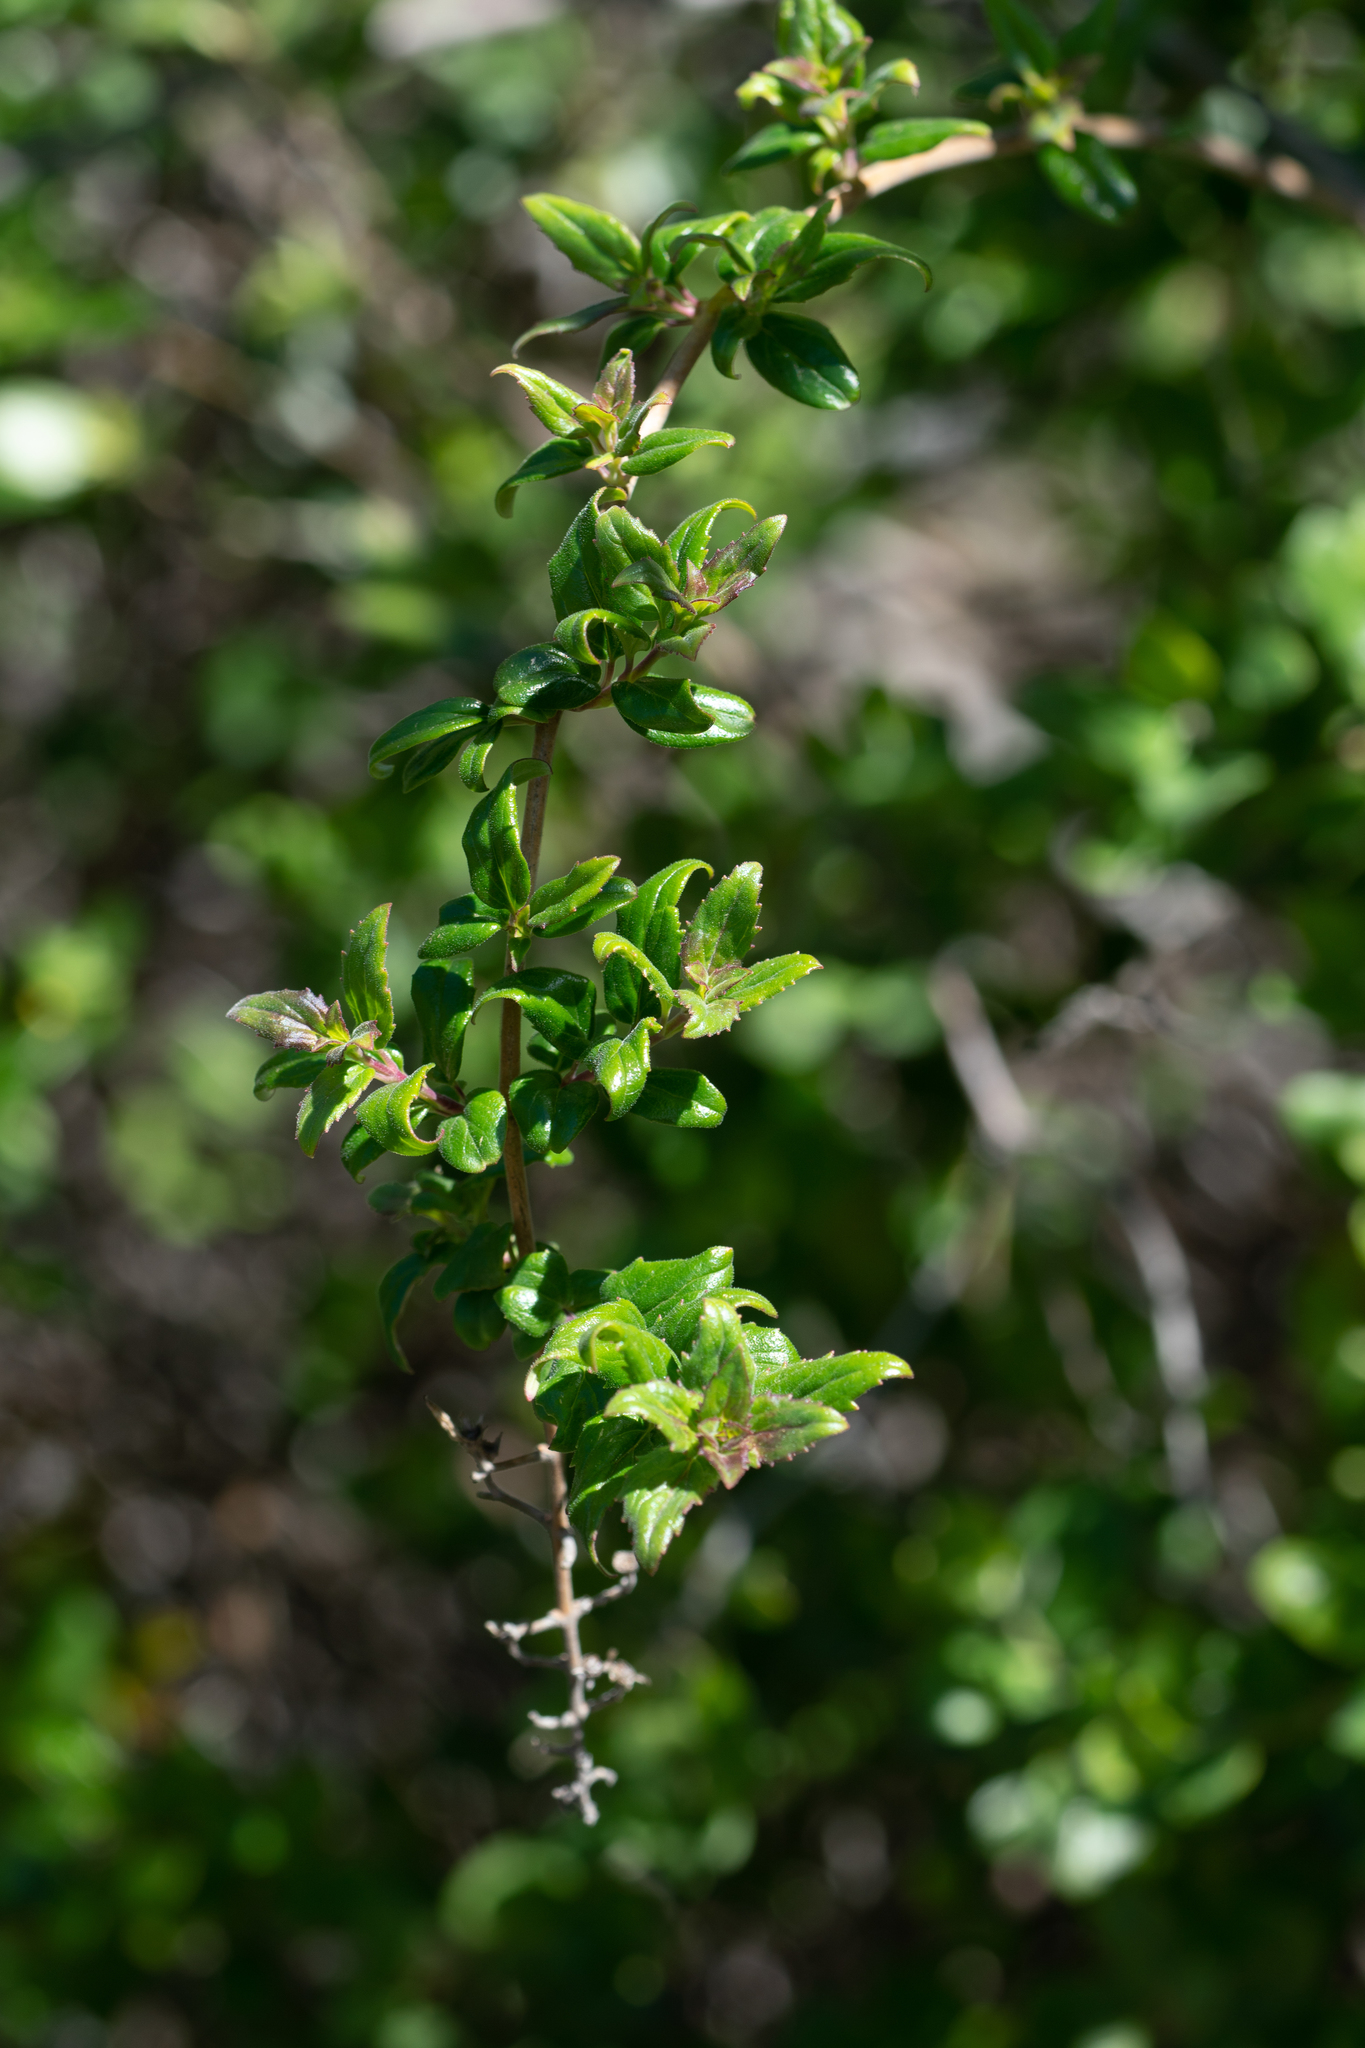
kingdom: Plantae
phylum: Tracheophyta
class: Magnoliopsida
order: Lamiales
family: Plantaginaceae
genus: Keckiella
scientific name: Keckiella cordifolia
